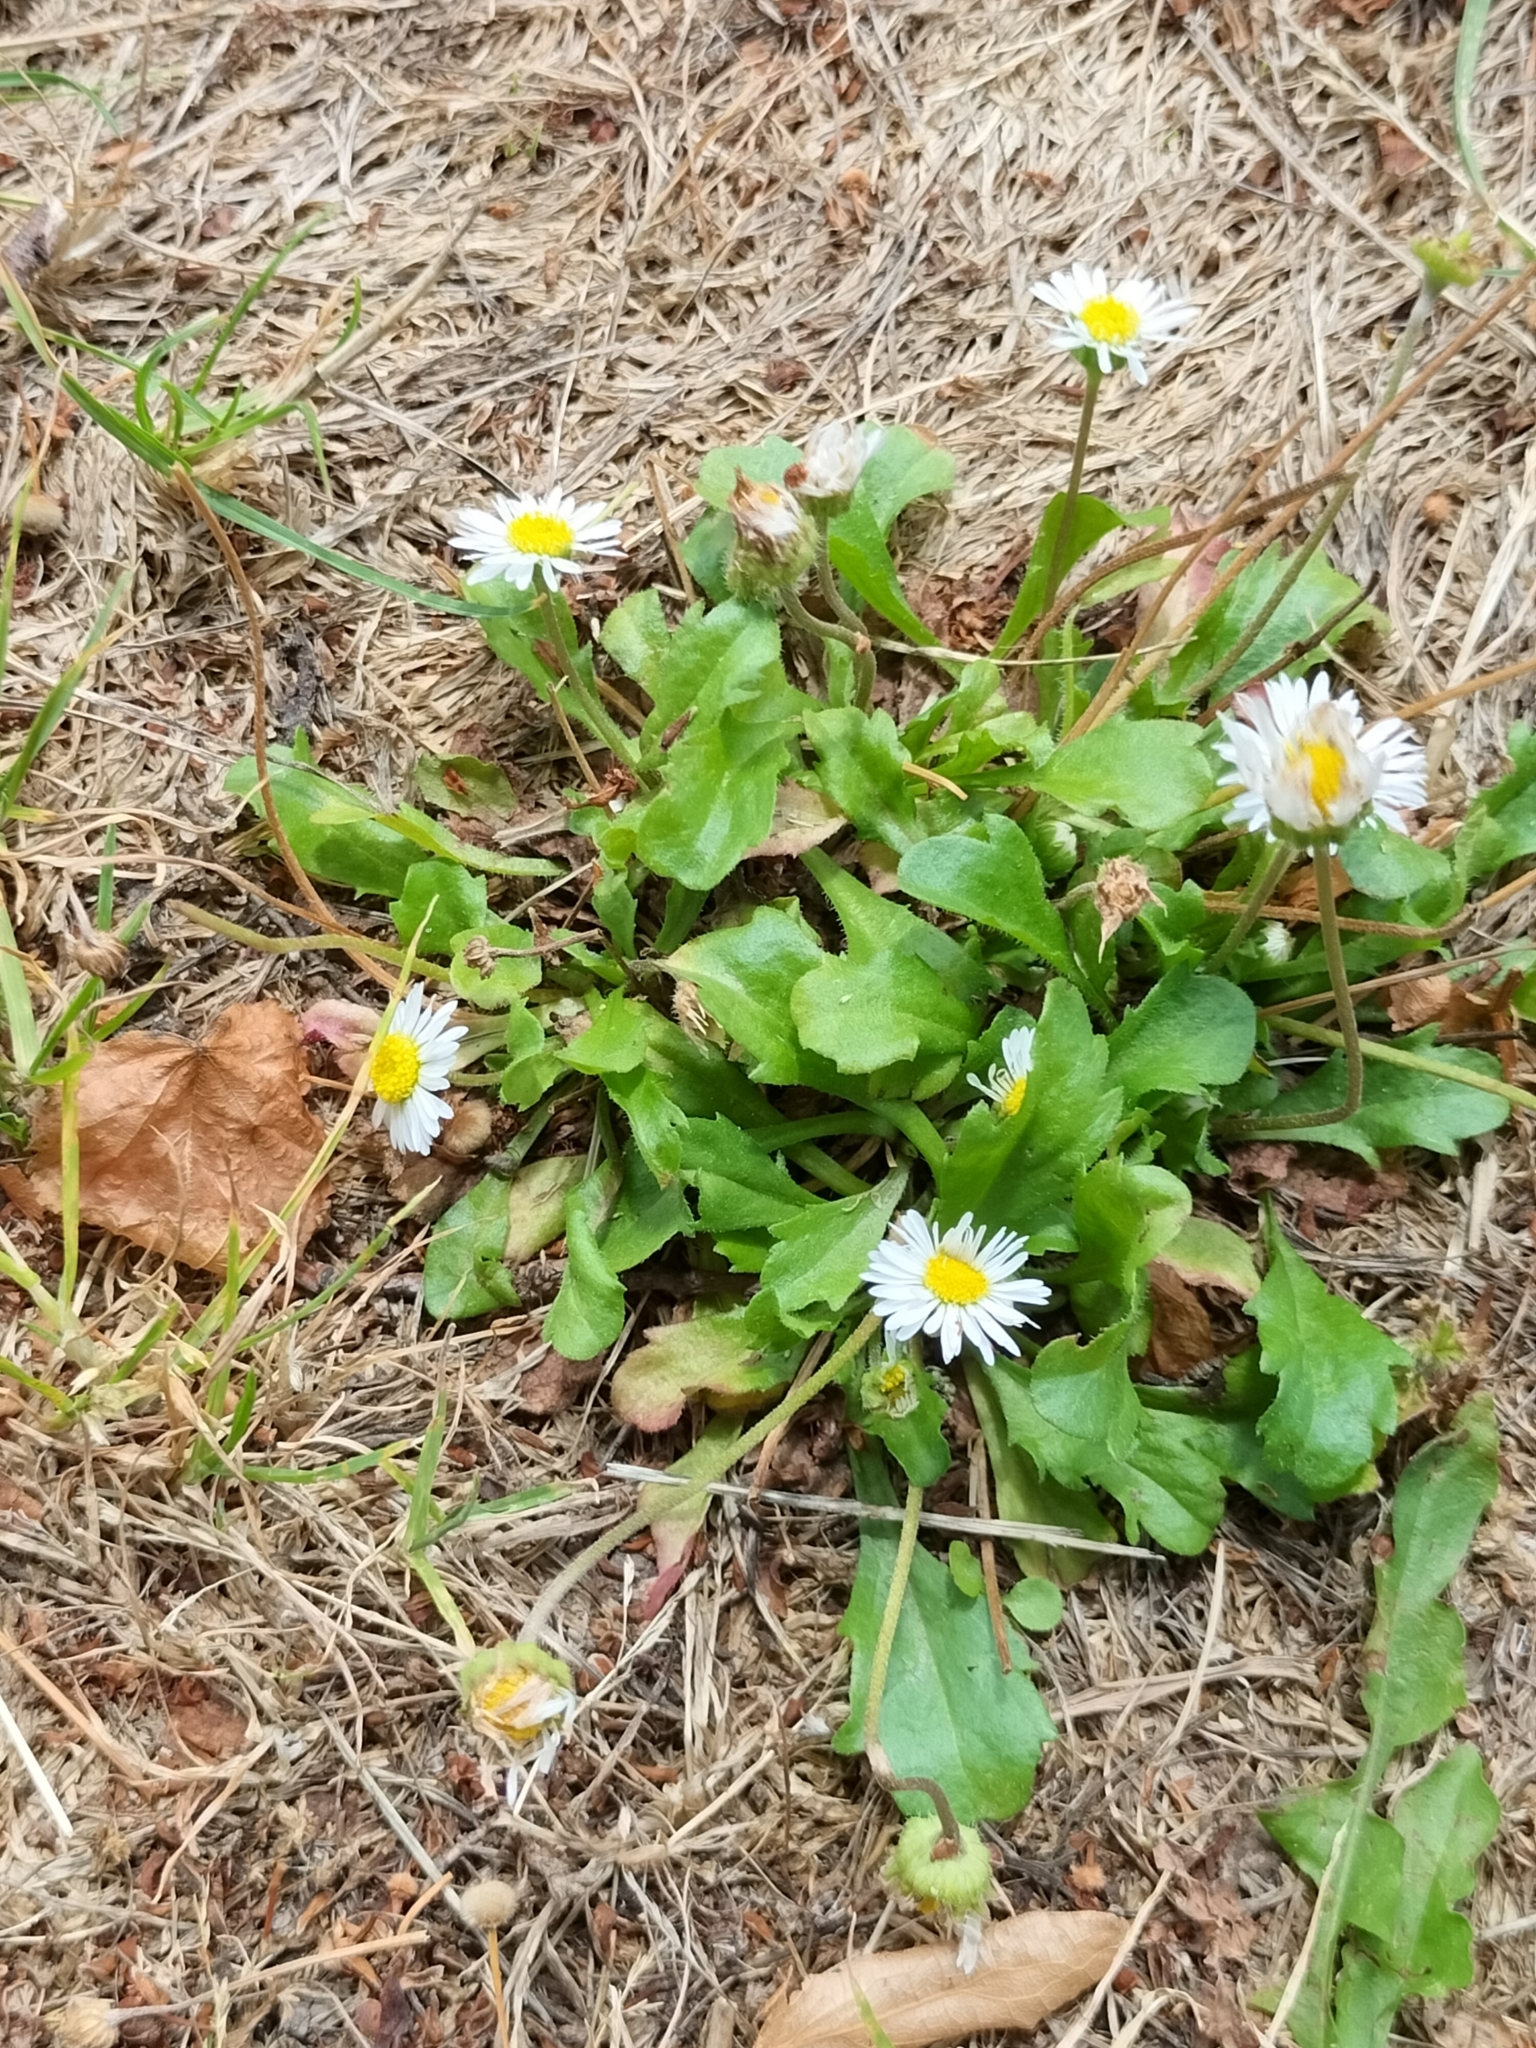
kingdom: Plantae
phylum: Tracheophyta
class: Magnoliopsida
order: Asterales
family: Asteraceae
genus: Bellis
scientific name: Bellis perennis
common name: Lawndaisy
